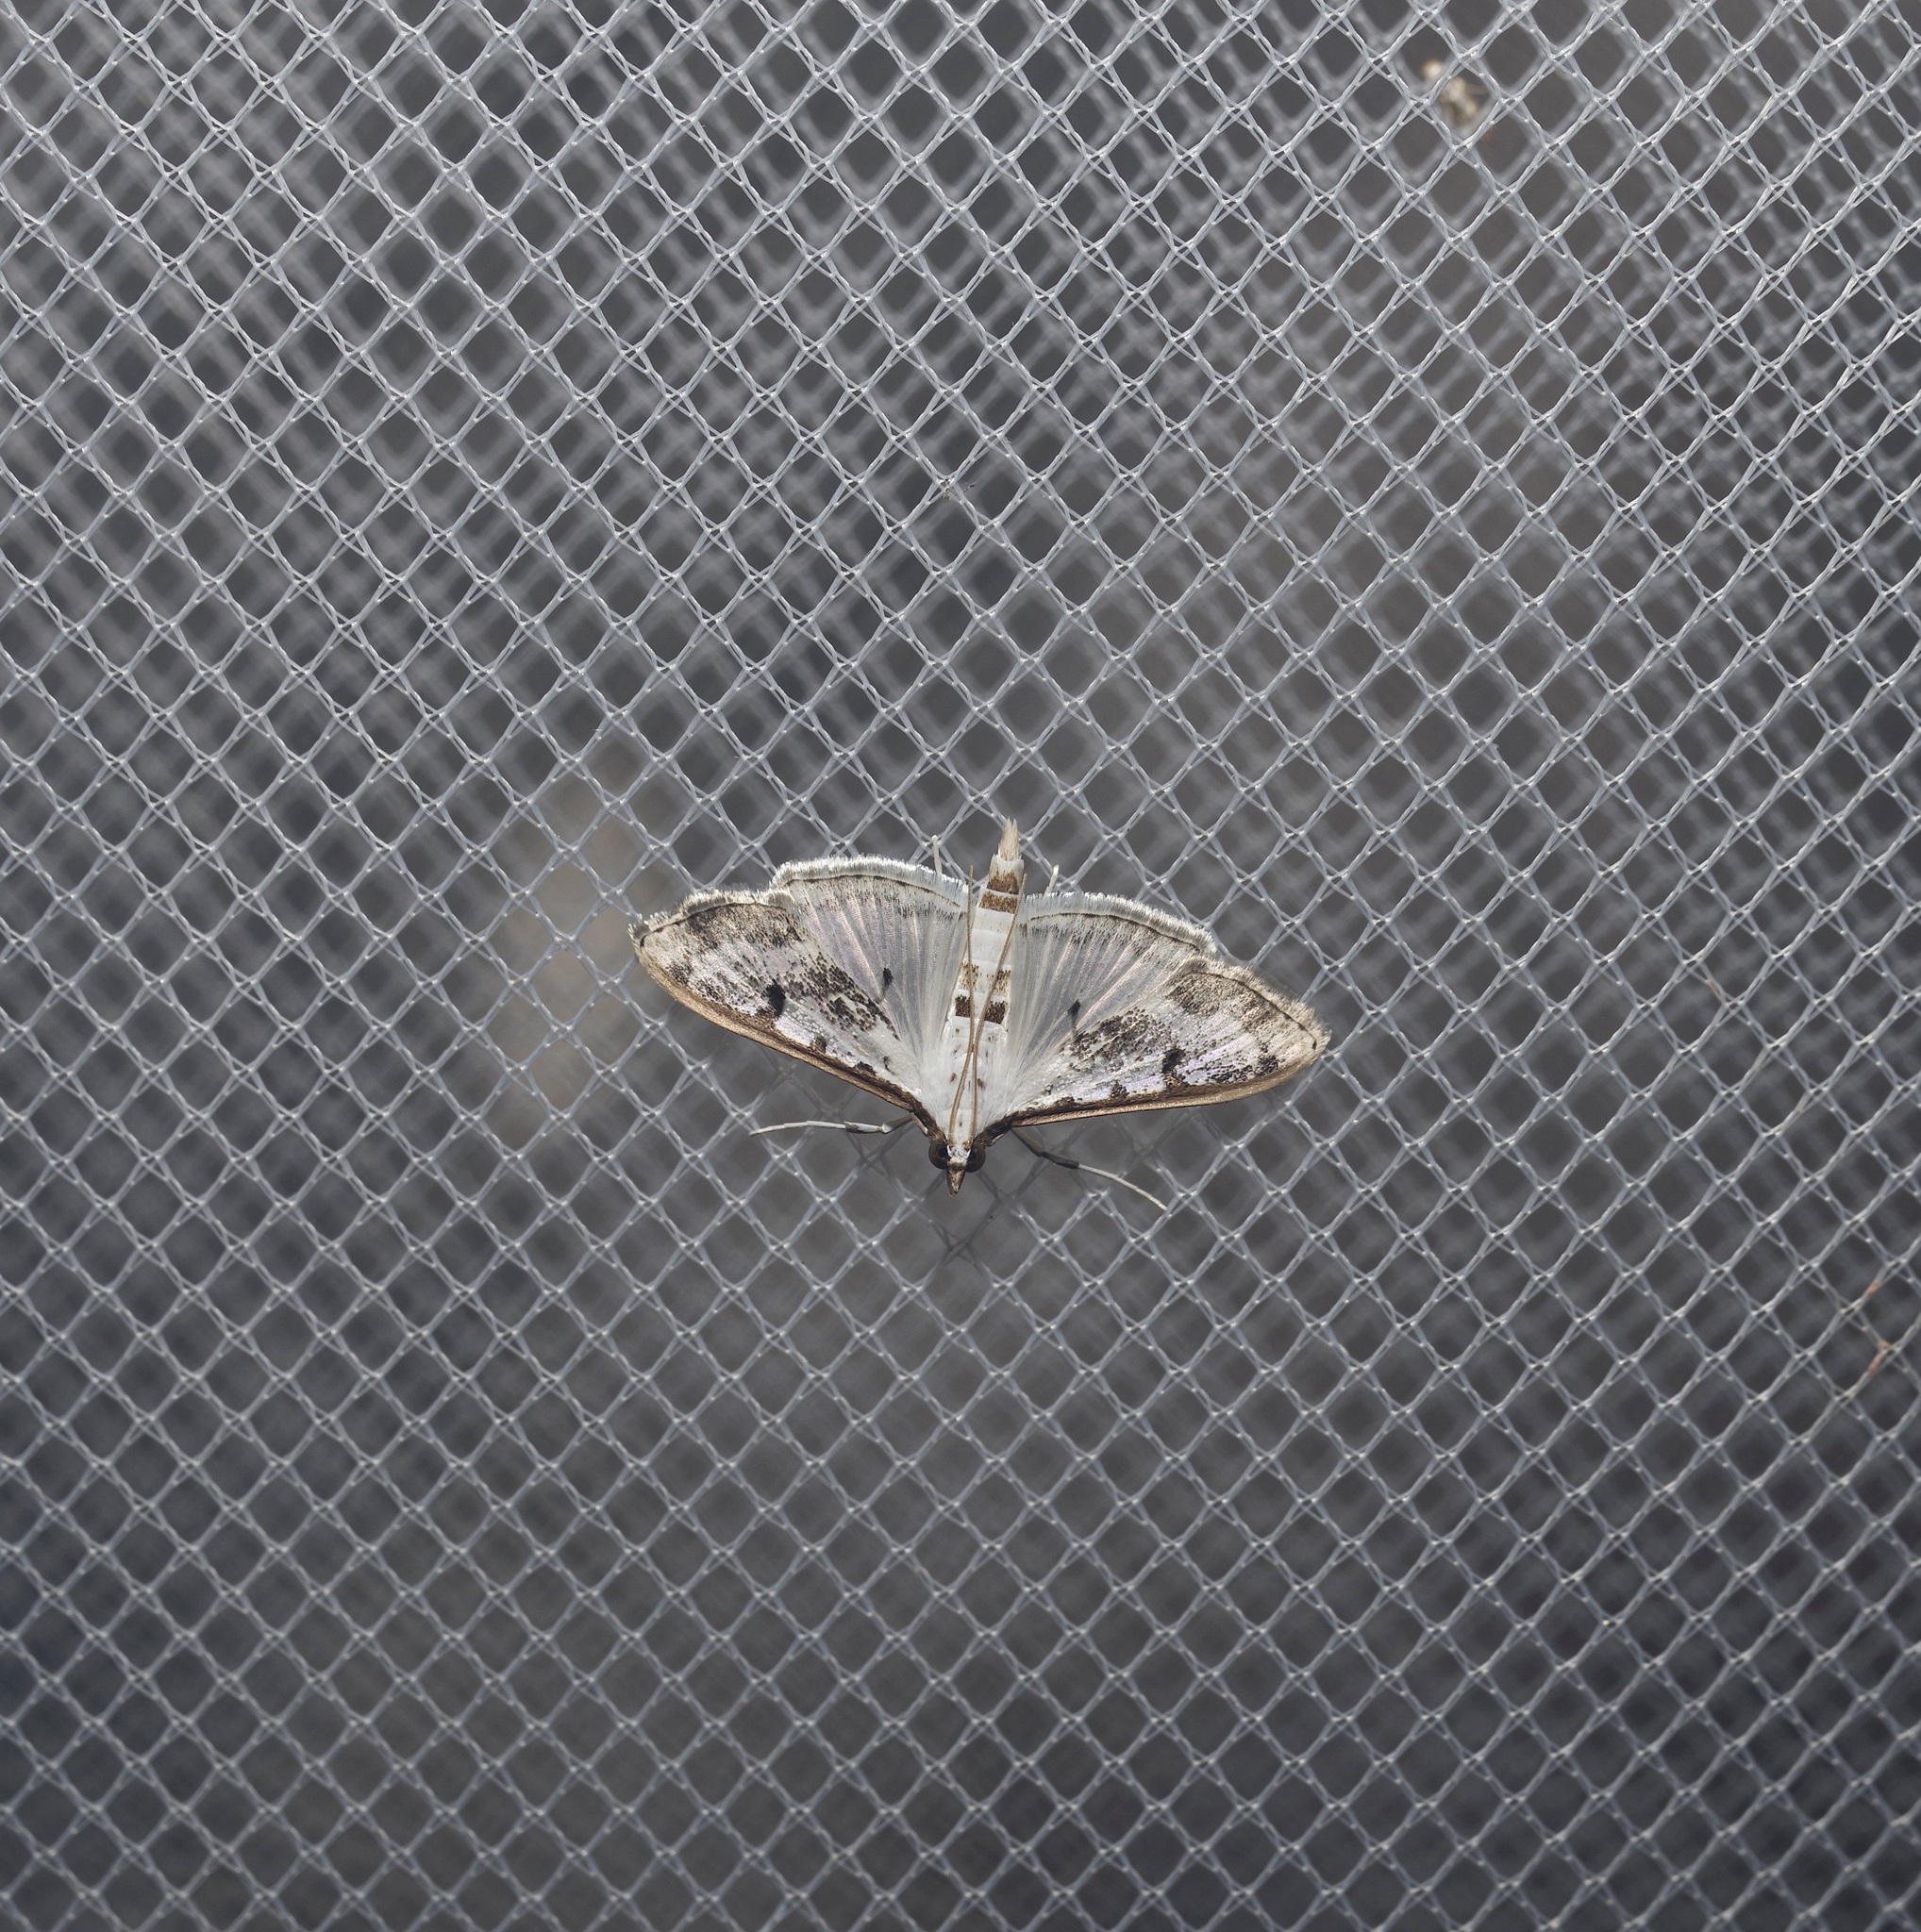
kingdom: Animalia
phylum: Arthropoda
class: Insecta
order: Lepidoptera
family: Crambidae
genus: Palpita
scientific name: Palpita gracilalis
